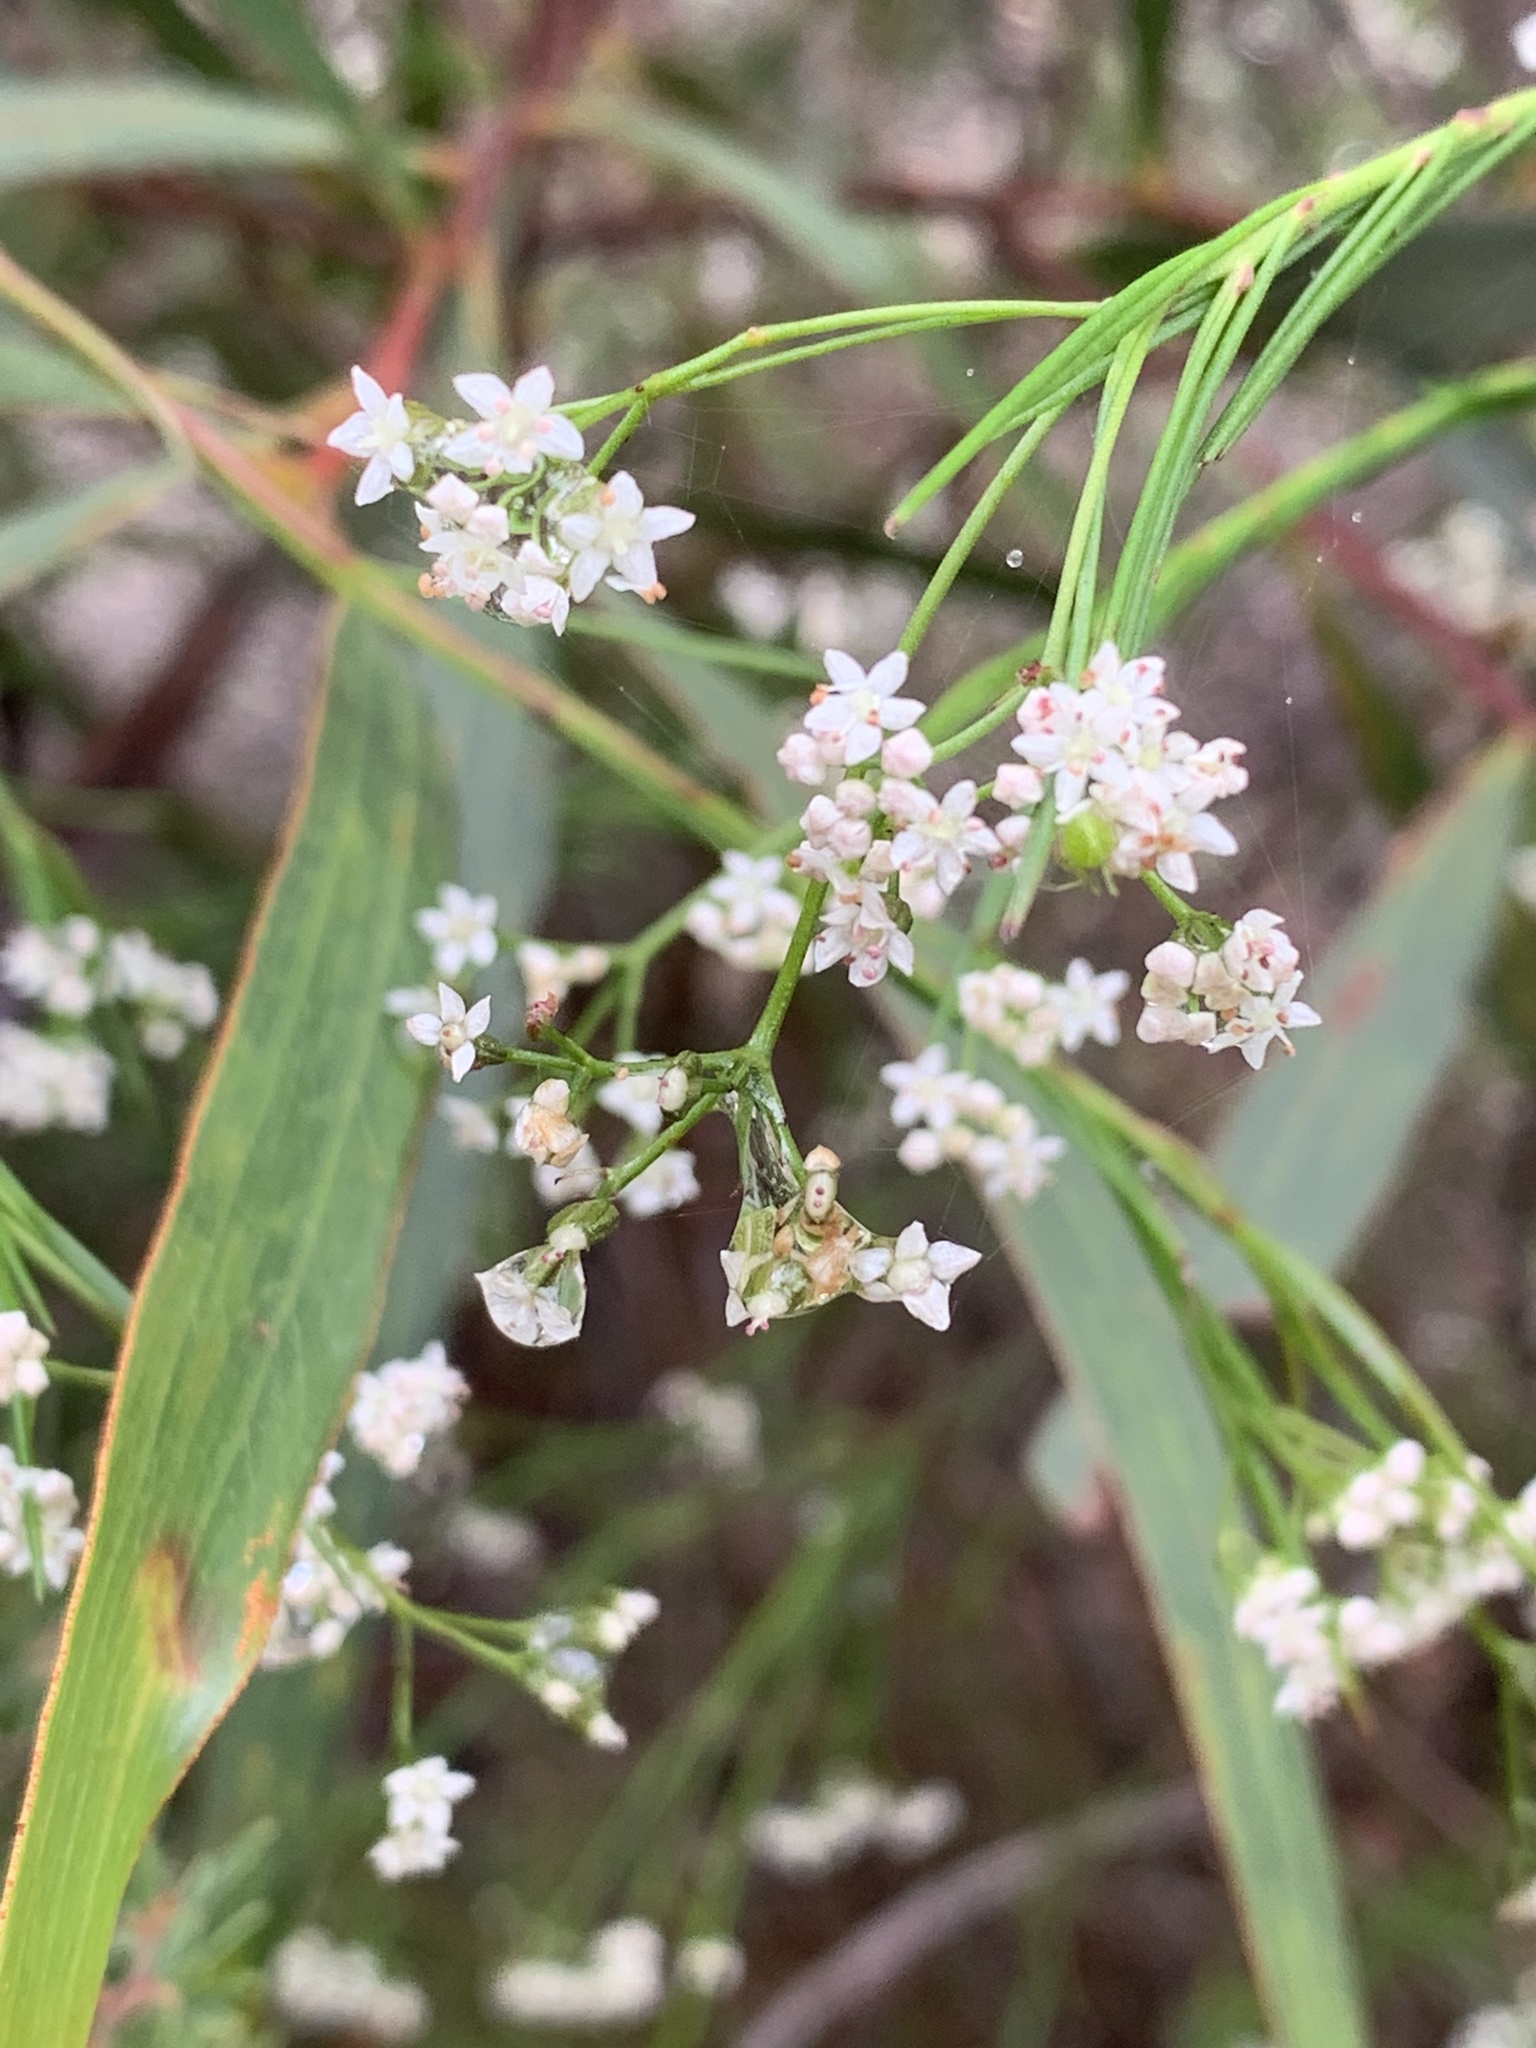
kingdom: Plantae
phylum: Tracheophyta
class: Magnoliopsida
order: Apiales
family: Apiaceae
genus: Platysace
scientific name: Platysace linearifolia
